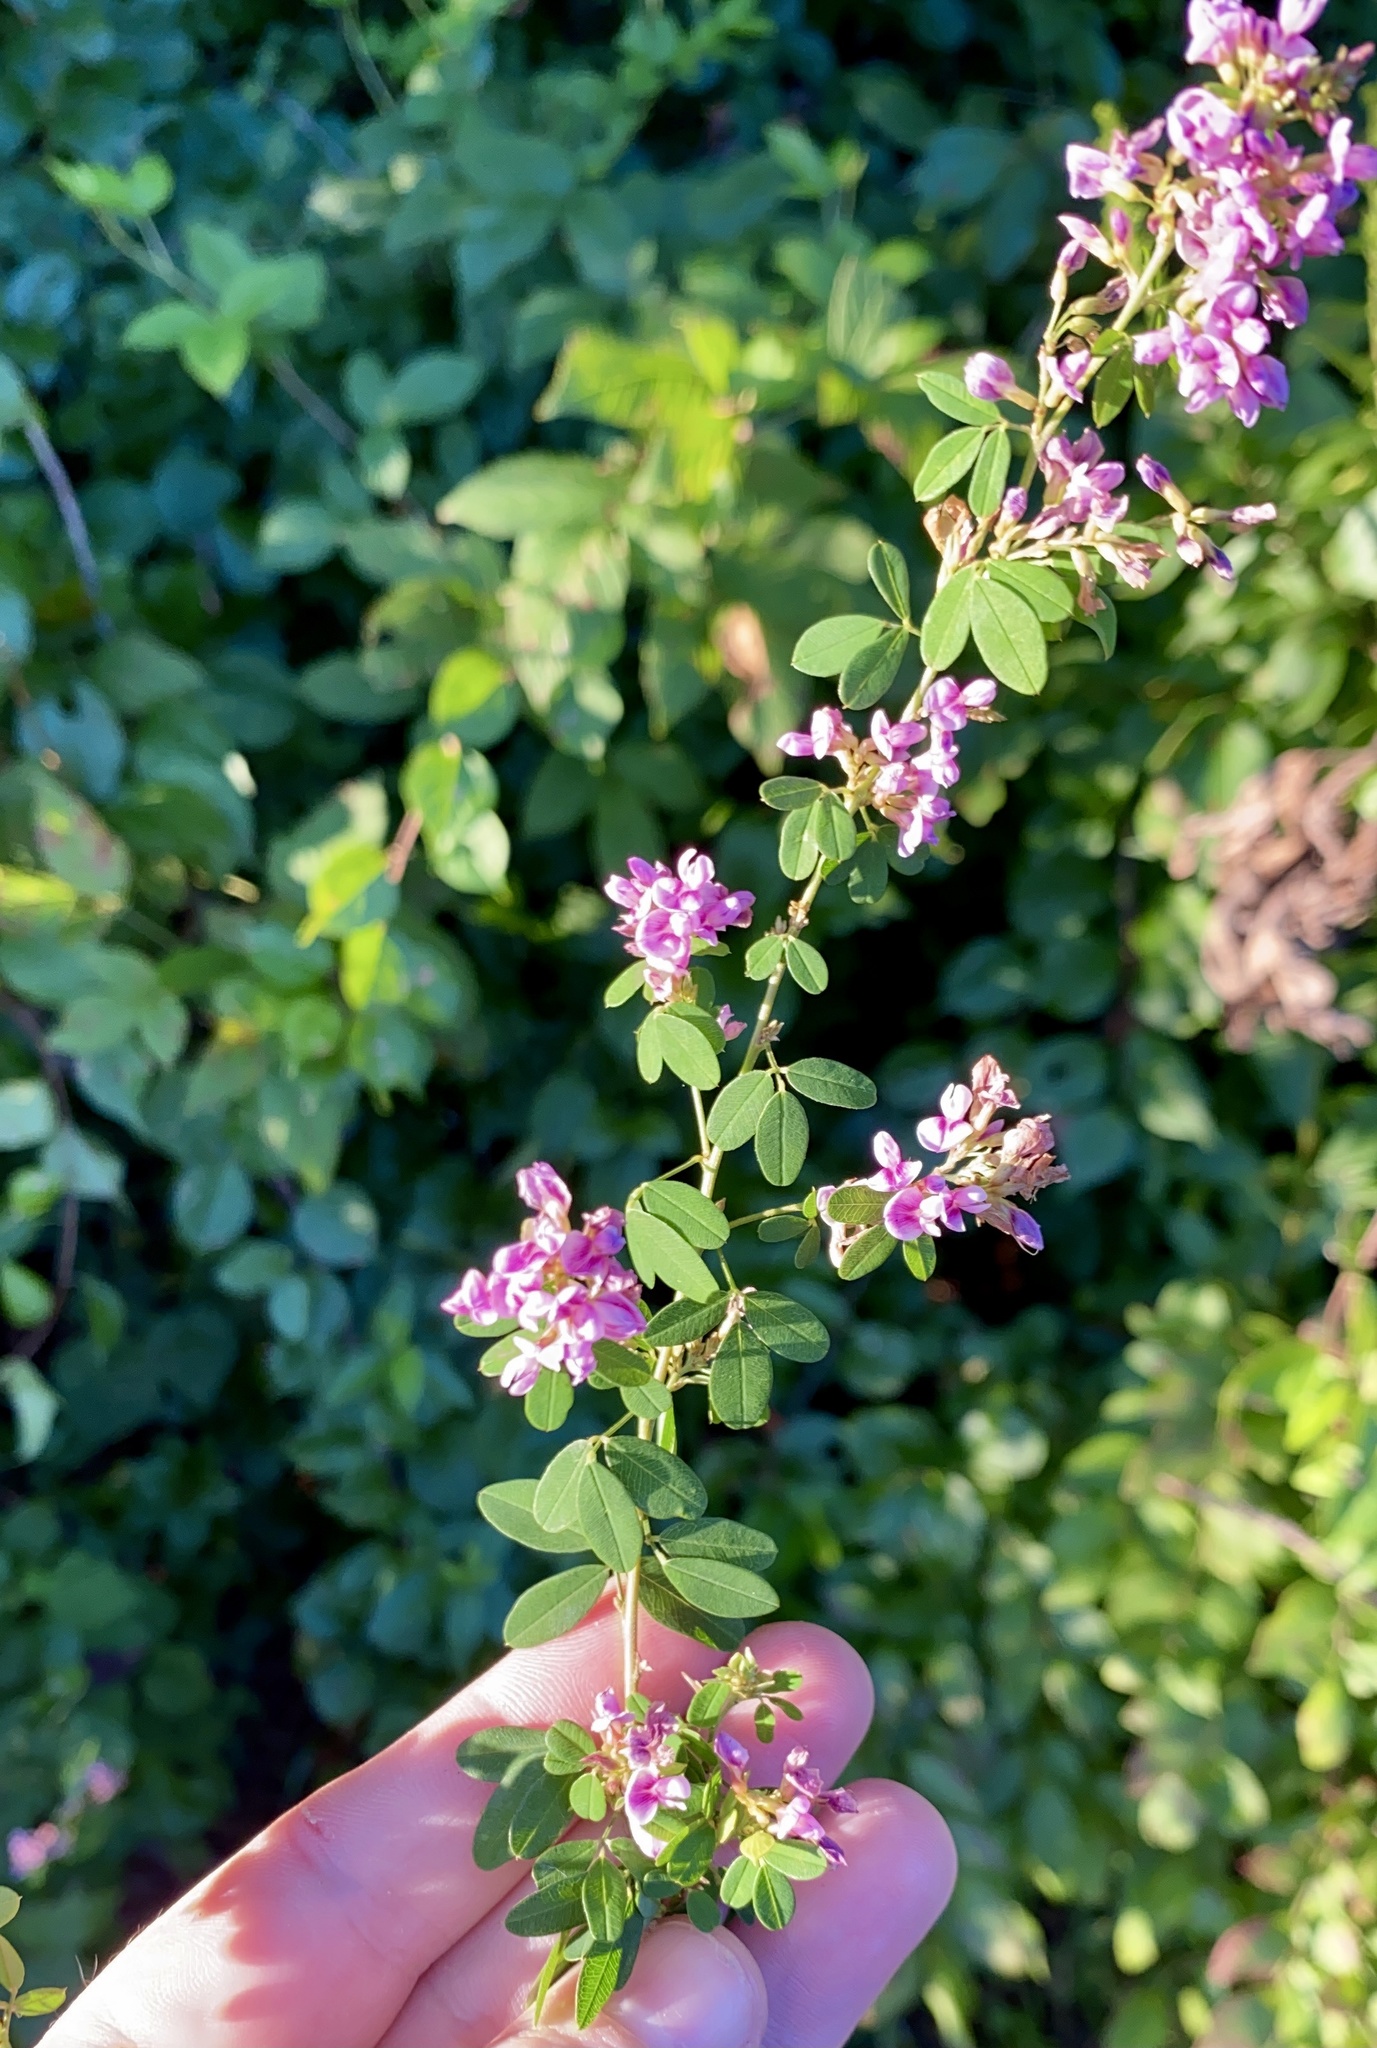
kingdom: Plantae
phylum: Tracheophyta
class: Magnoliopsida
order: Fabales
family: Fabaceae
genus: Lespedeza
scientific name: Lespedeza violacea
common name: Wand bush-clover
